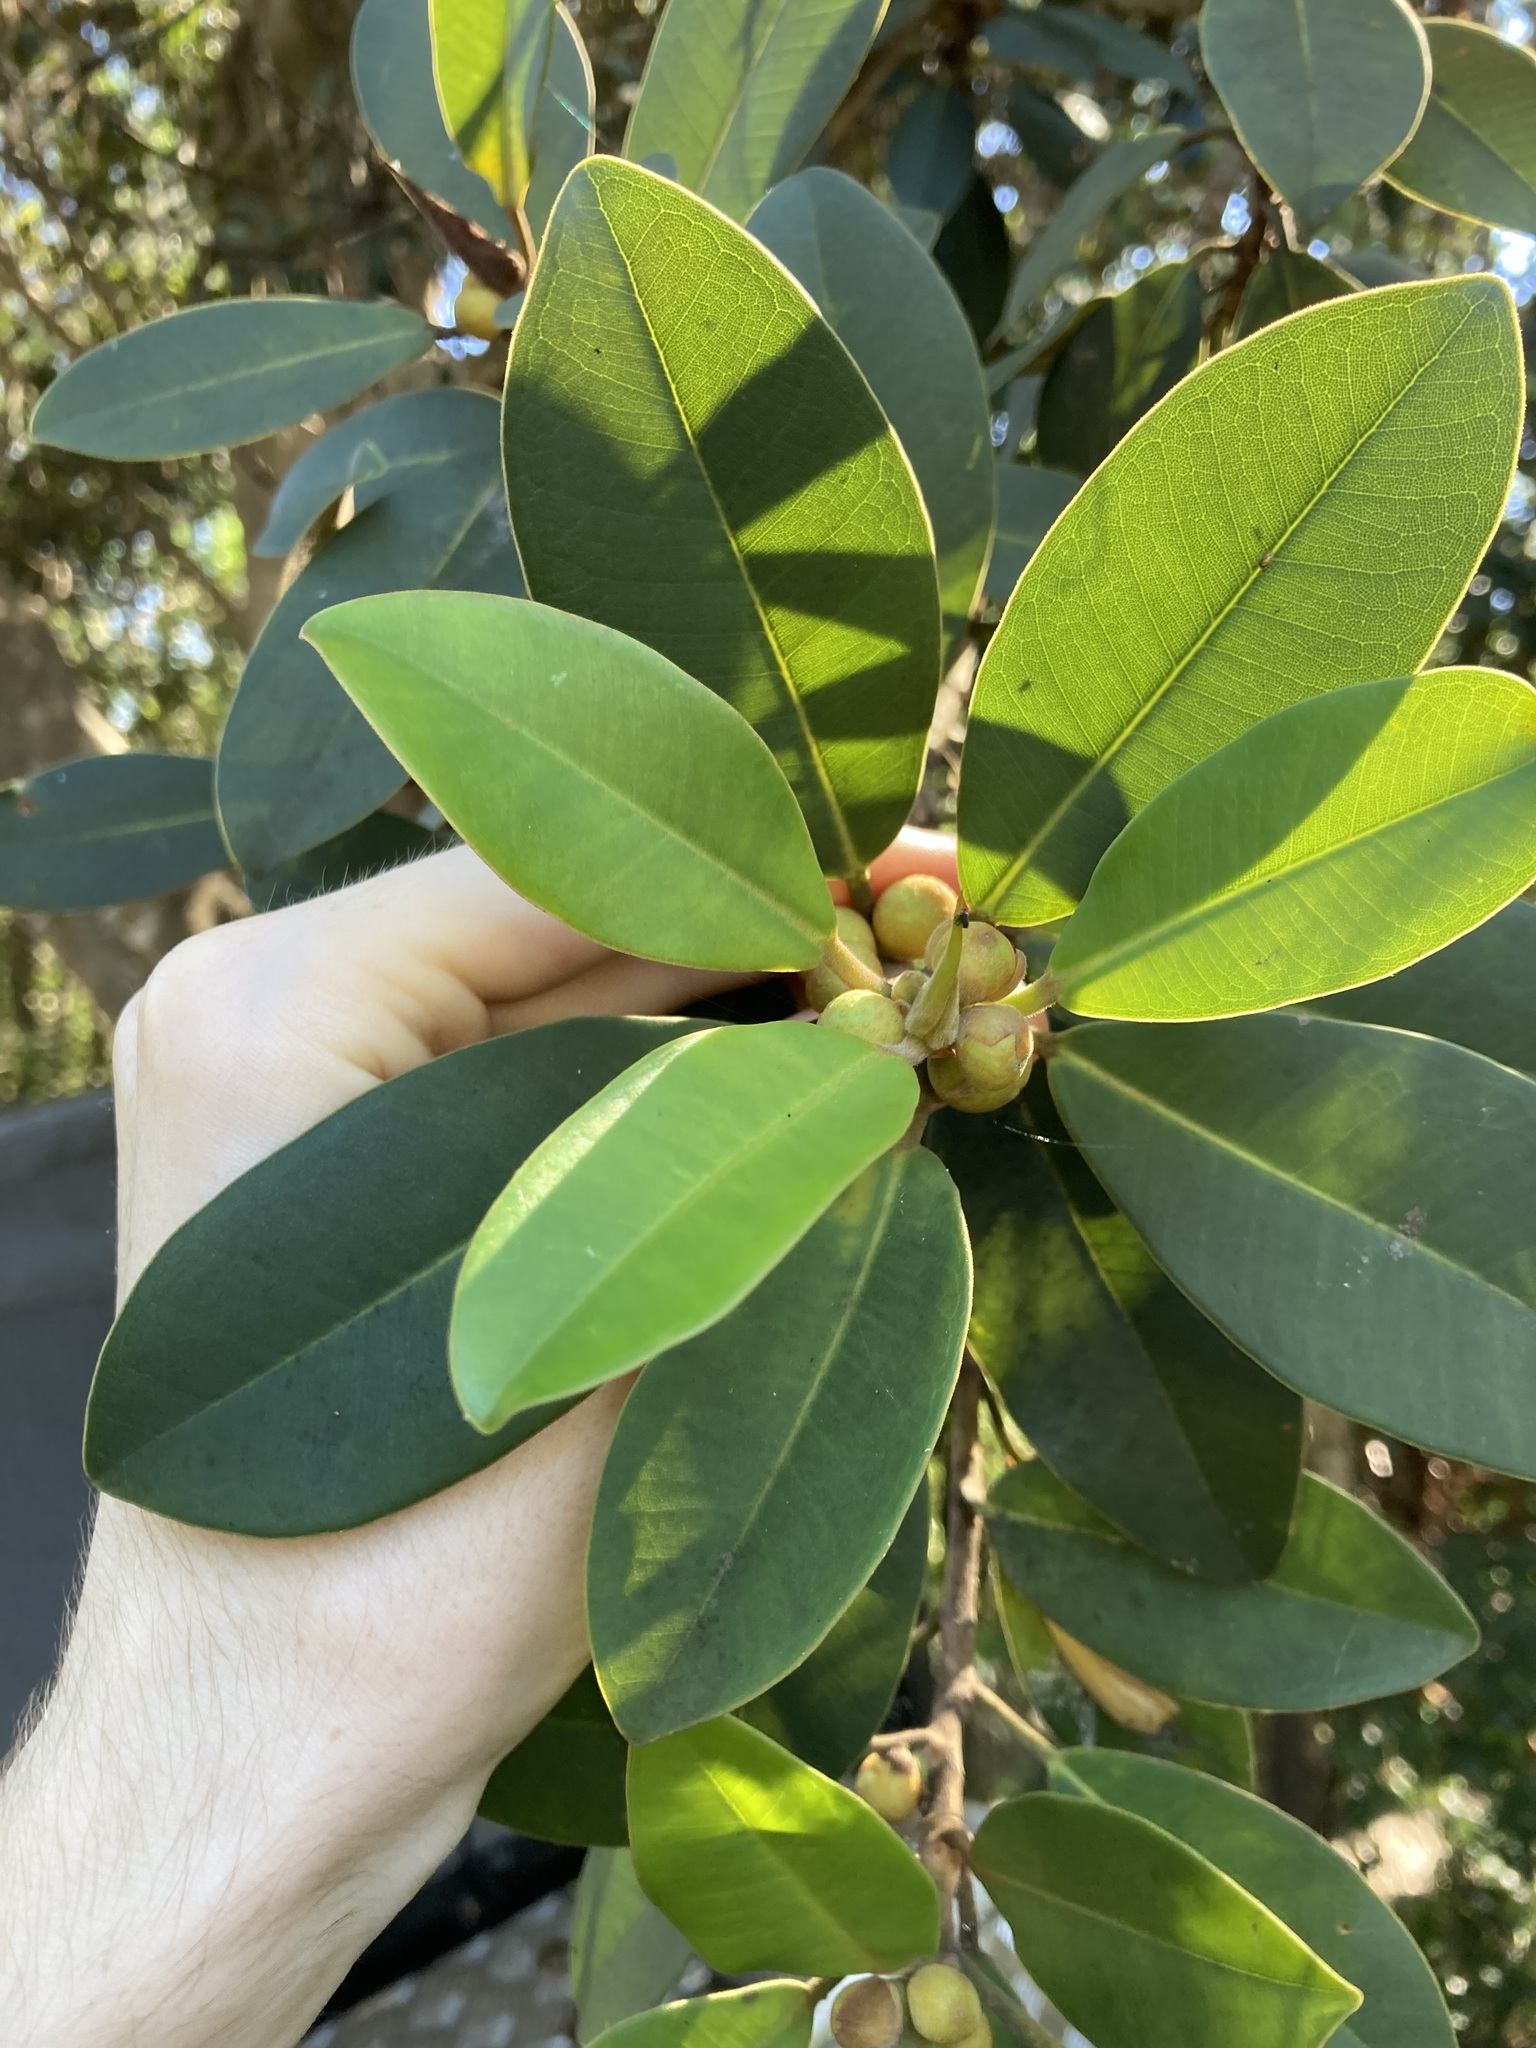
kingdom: Plantae
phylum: Tracheophyta
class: Magnoliopsida
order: Rosales
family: Moraceae
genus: Ficus
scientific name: Ficus rubiginosa
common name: Port jackson fig
